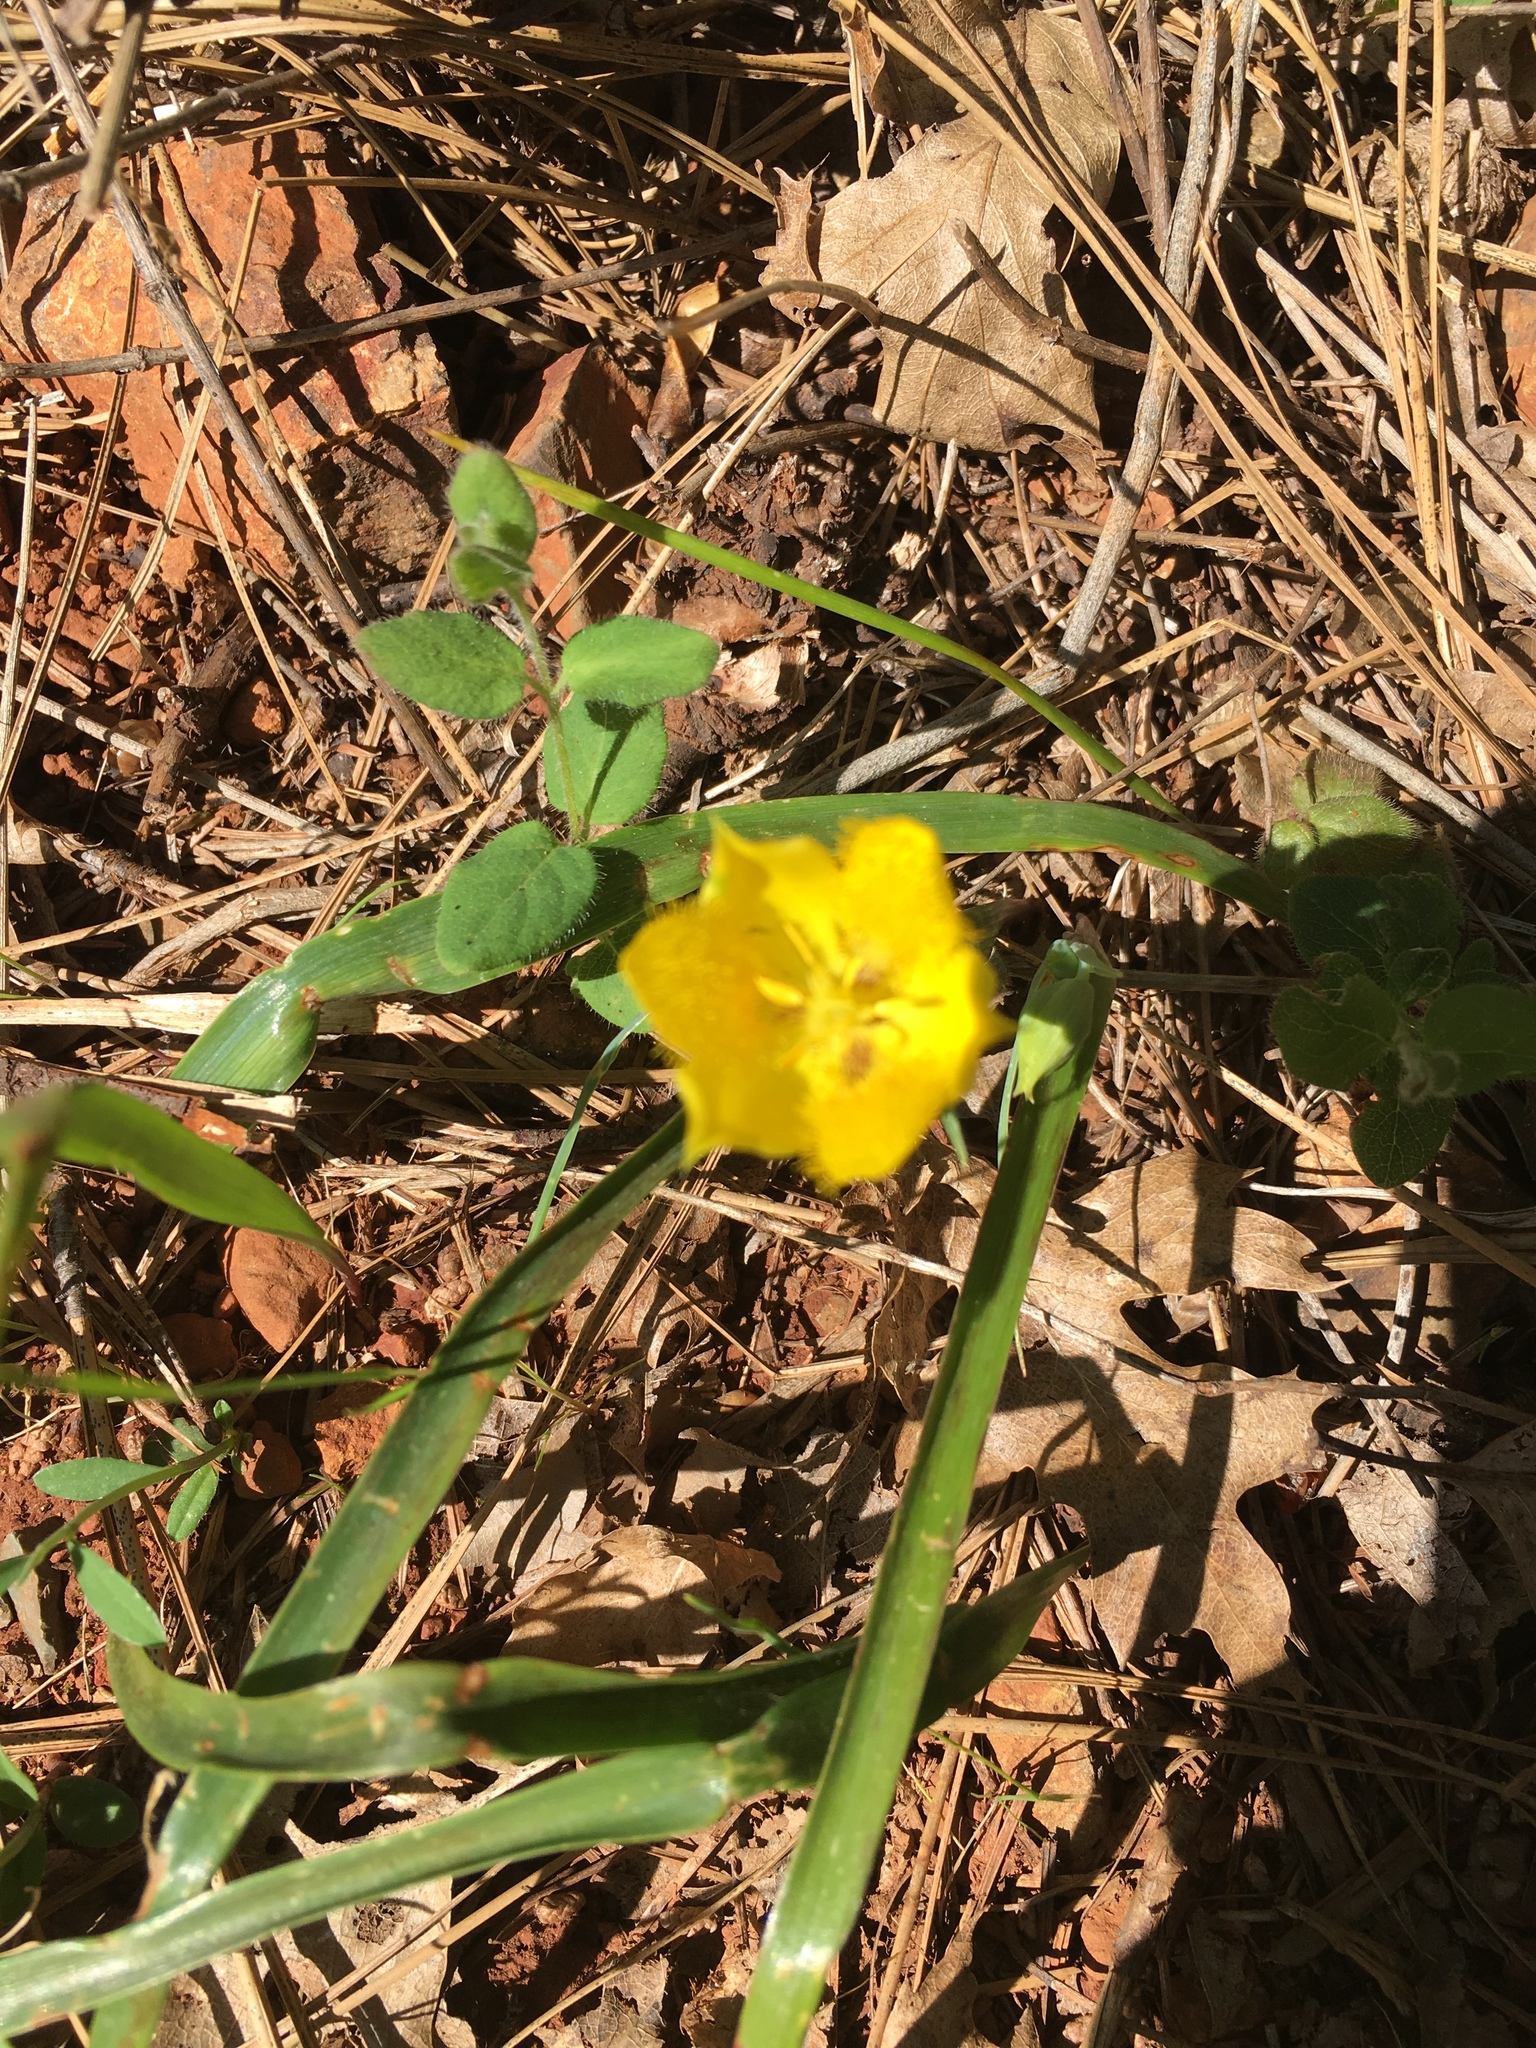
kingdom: Plantae
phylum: Tracheophyta
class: Liliopsida
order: Liliales
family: Liliaceae
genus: Calochortus
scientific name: Calochortus monophyllus
